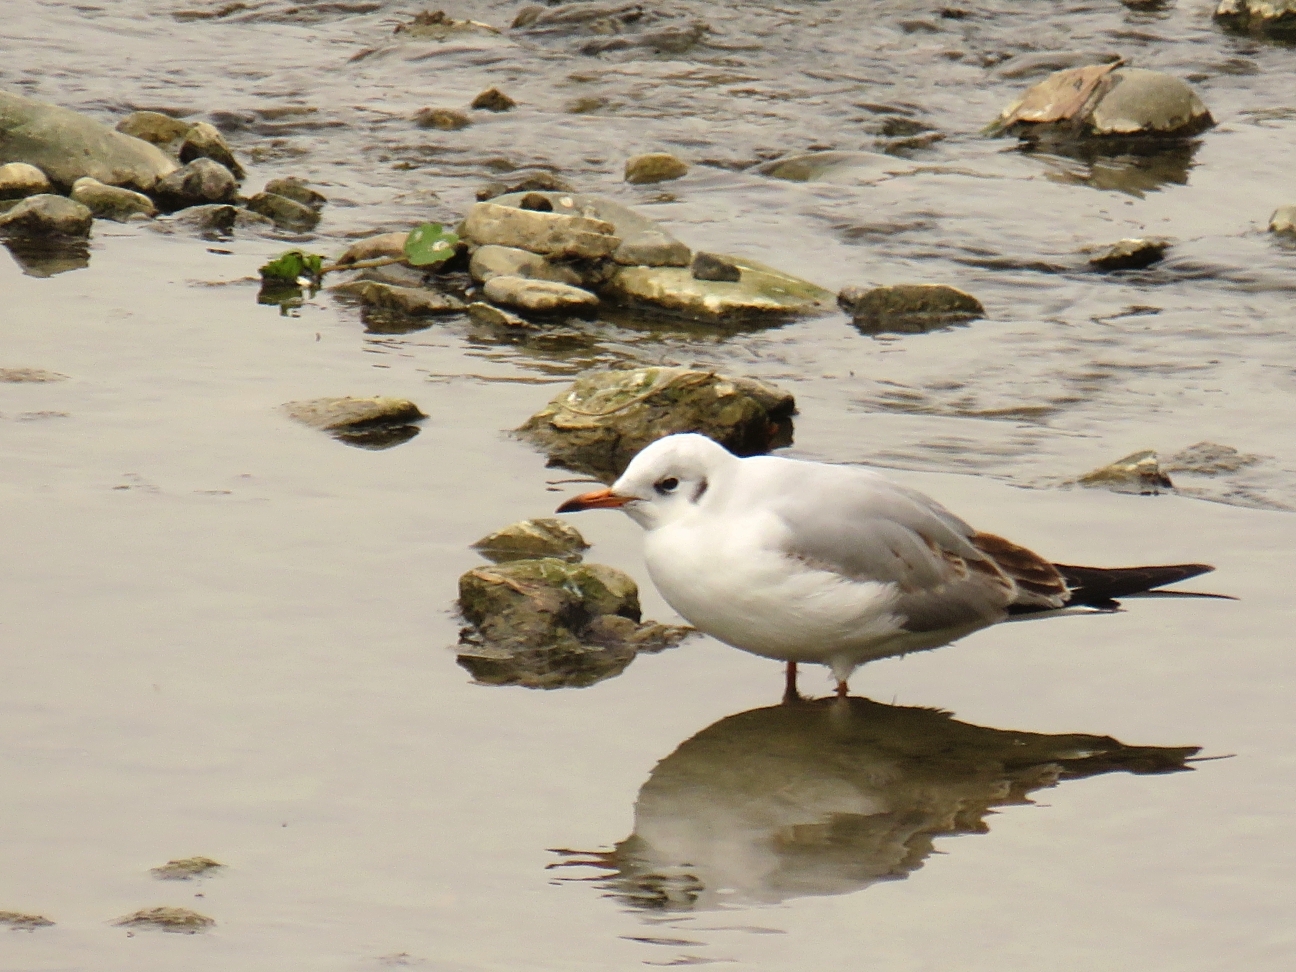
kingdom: Animalia
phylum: Chordata
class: Aves
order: Charadriiformes
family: Laridae
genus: Chroicocephalus
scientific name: Chroicocephalus ridibundus
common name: Black-headed gull
